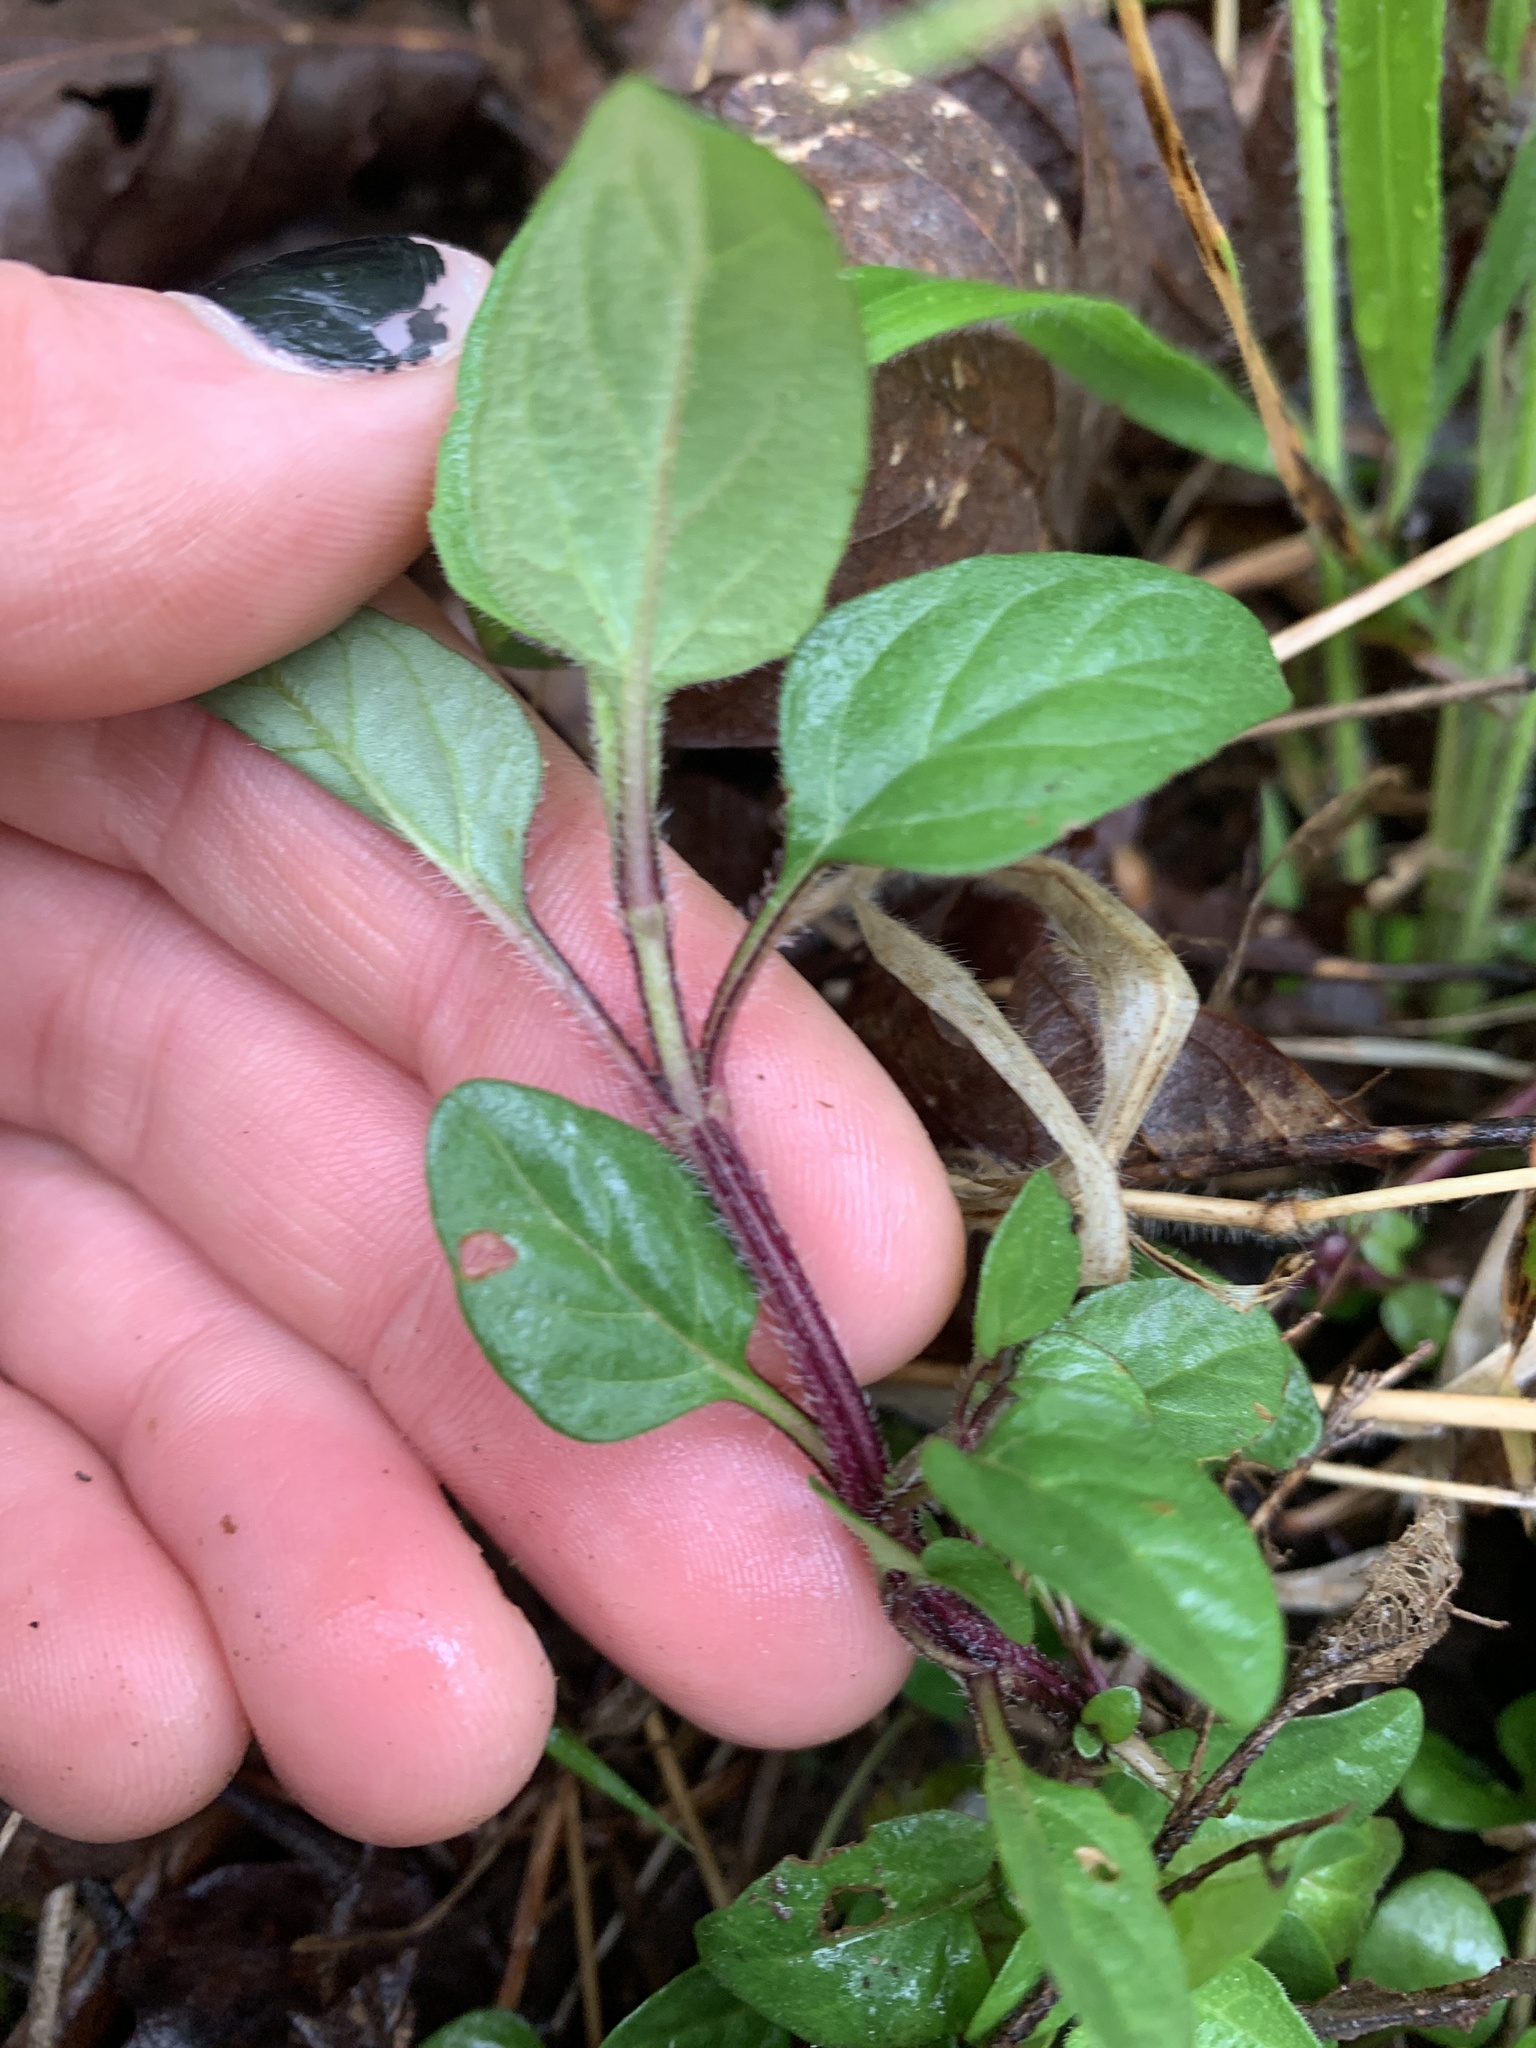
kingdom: Plantae
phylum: Tracheophyta
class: Magnoliopsida
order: Lamiales
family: Lamiaceae
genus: Prunella
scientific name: Prunella vulgaris
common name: Heal-all
